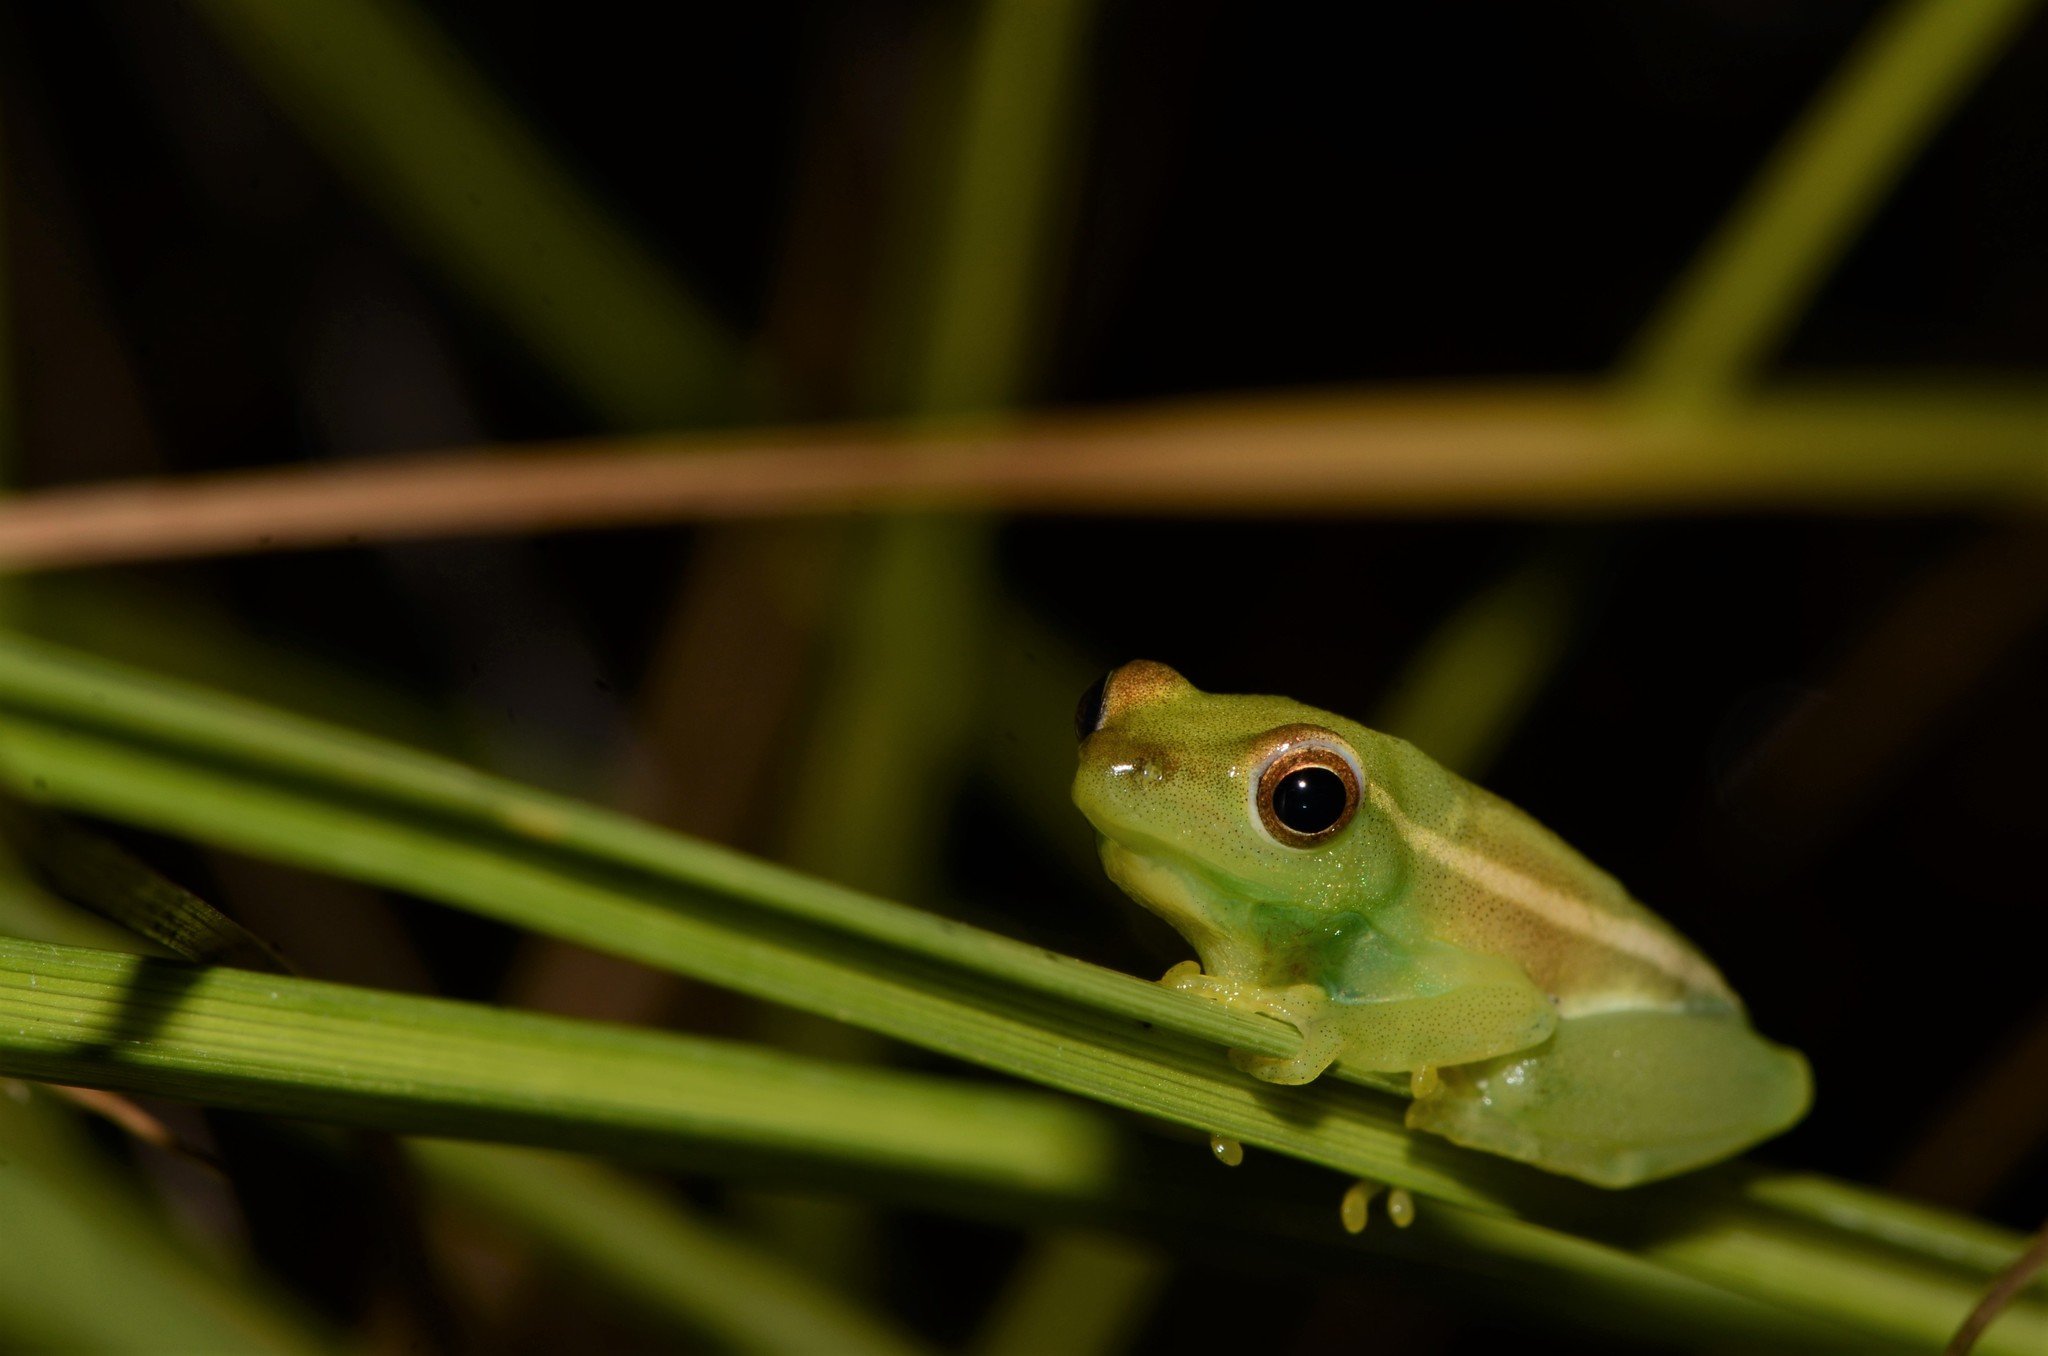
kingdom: Animalia
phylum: Chordata
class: Amphibia
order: Anura
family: Hyperoliidae
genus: Hyperolius
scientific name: Hyperolius microps
